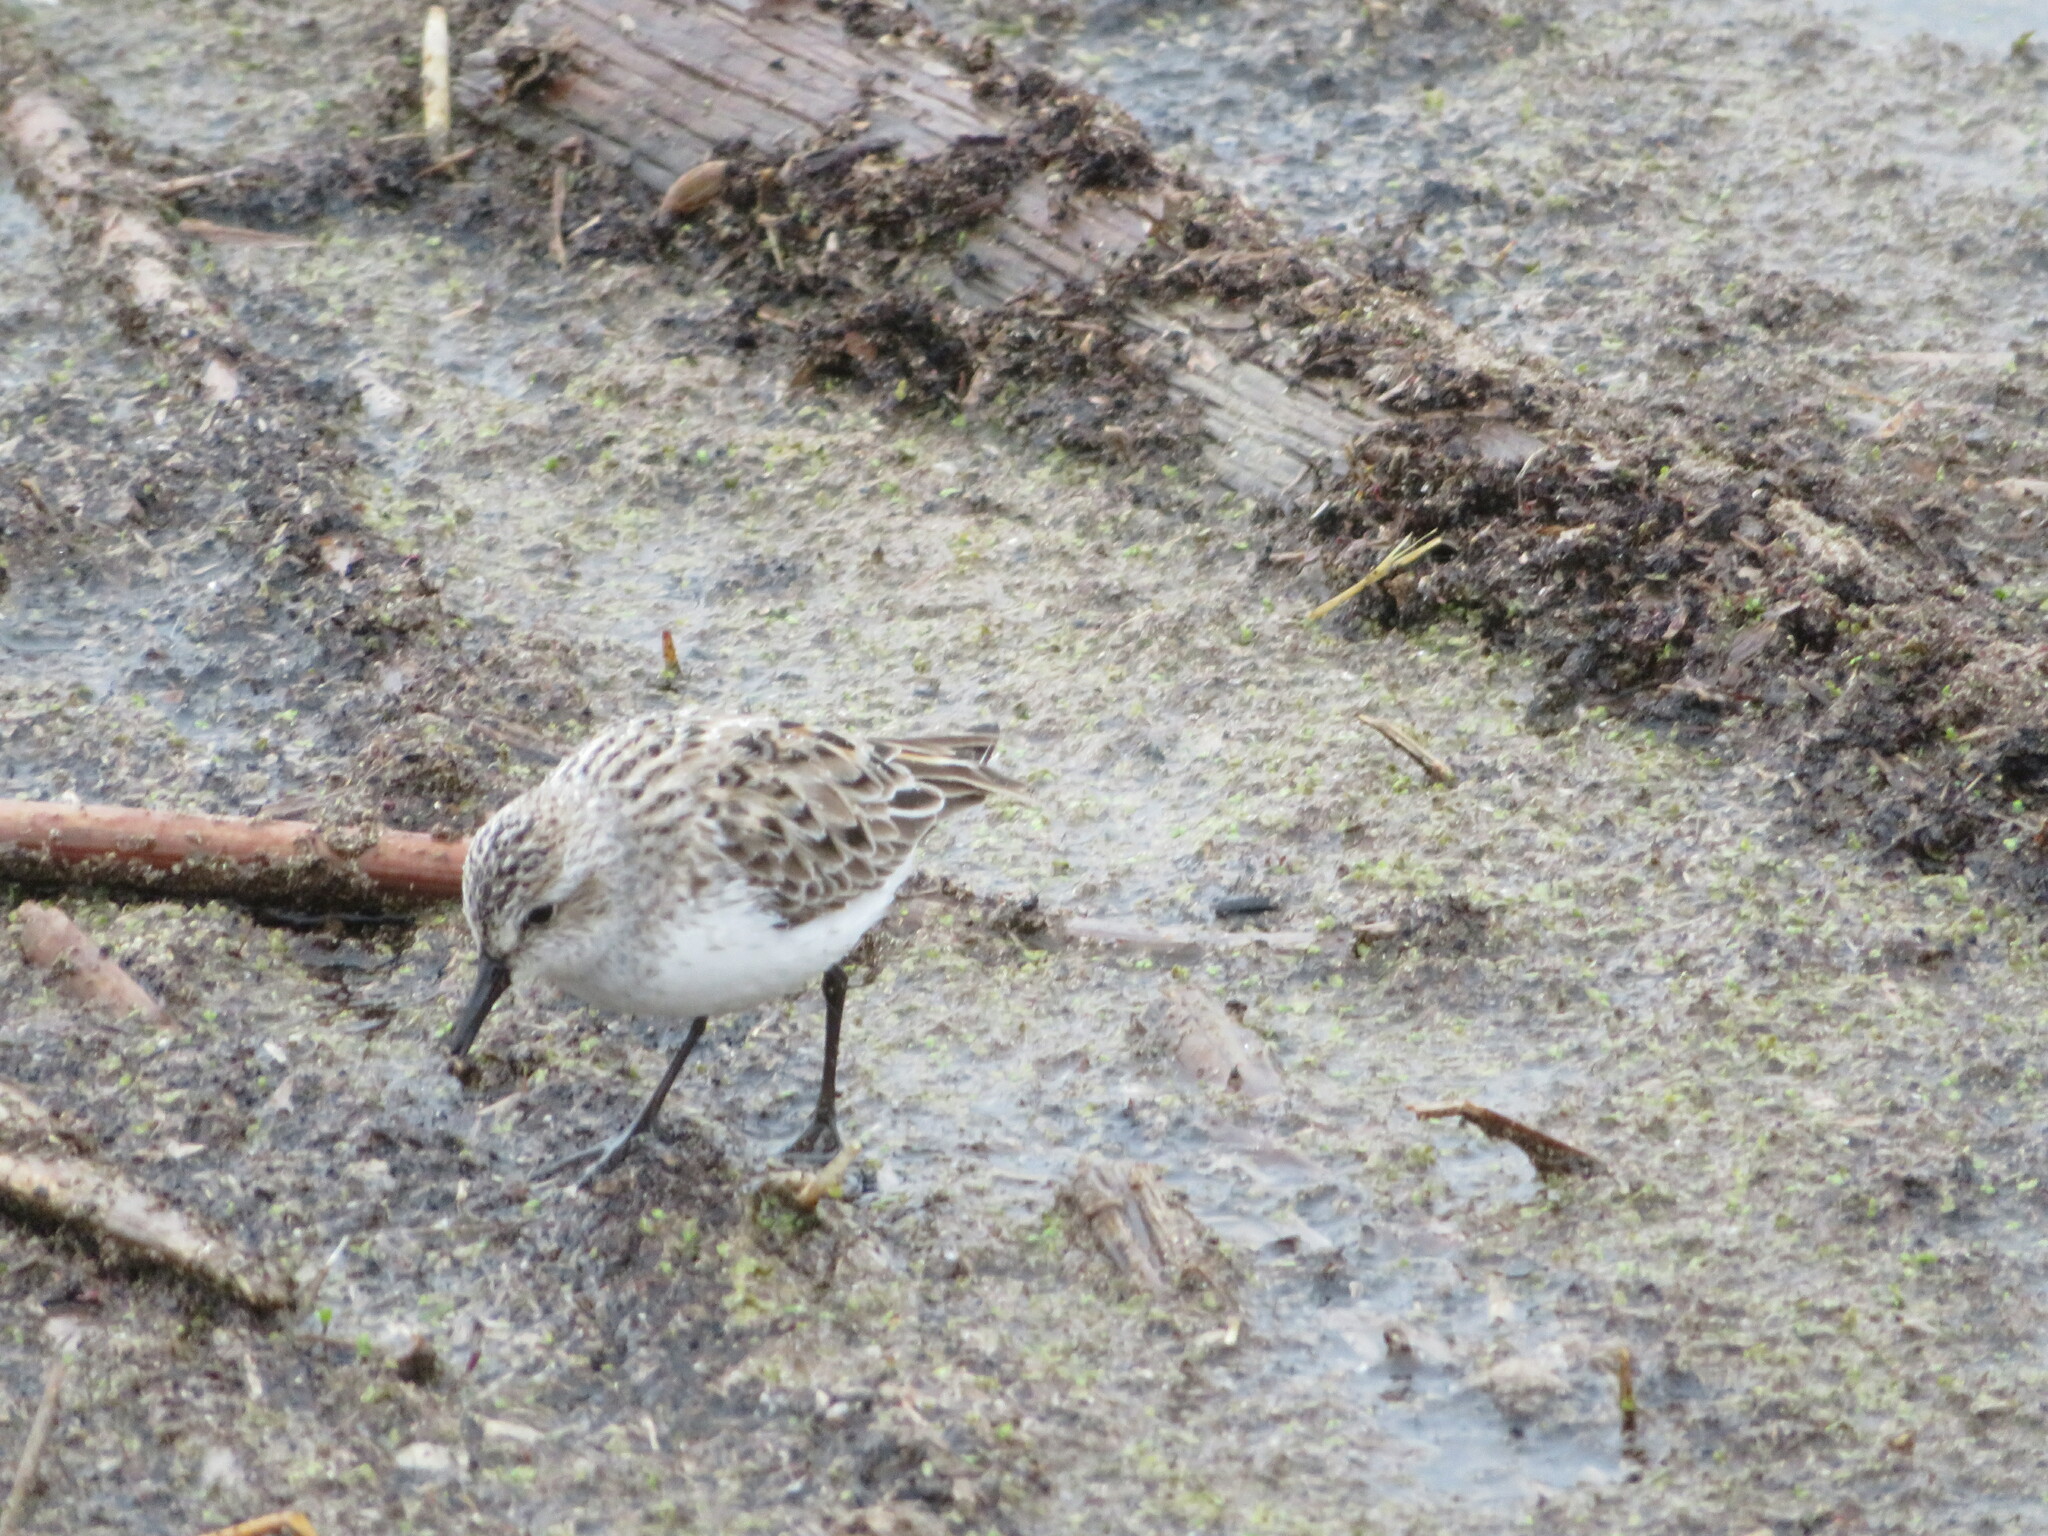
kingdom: Animalia
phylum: Chordata
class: Aves
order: Charadriiformes
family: Scolopacidae
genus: Calidris
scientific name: Calidris pusilla
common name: Semipalmated sandpiper
